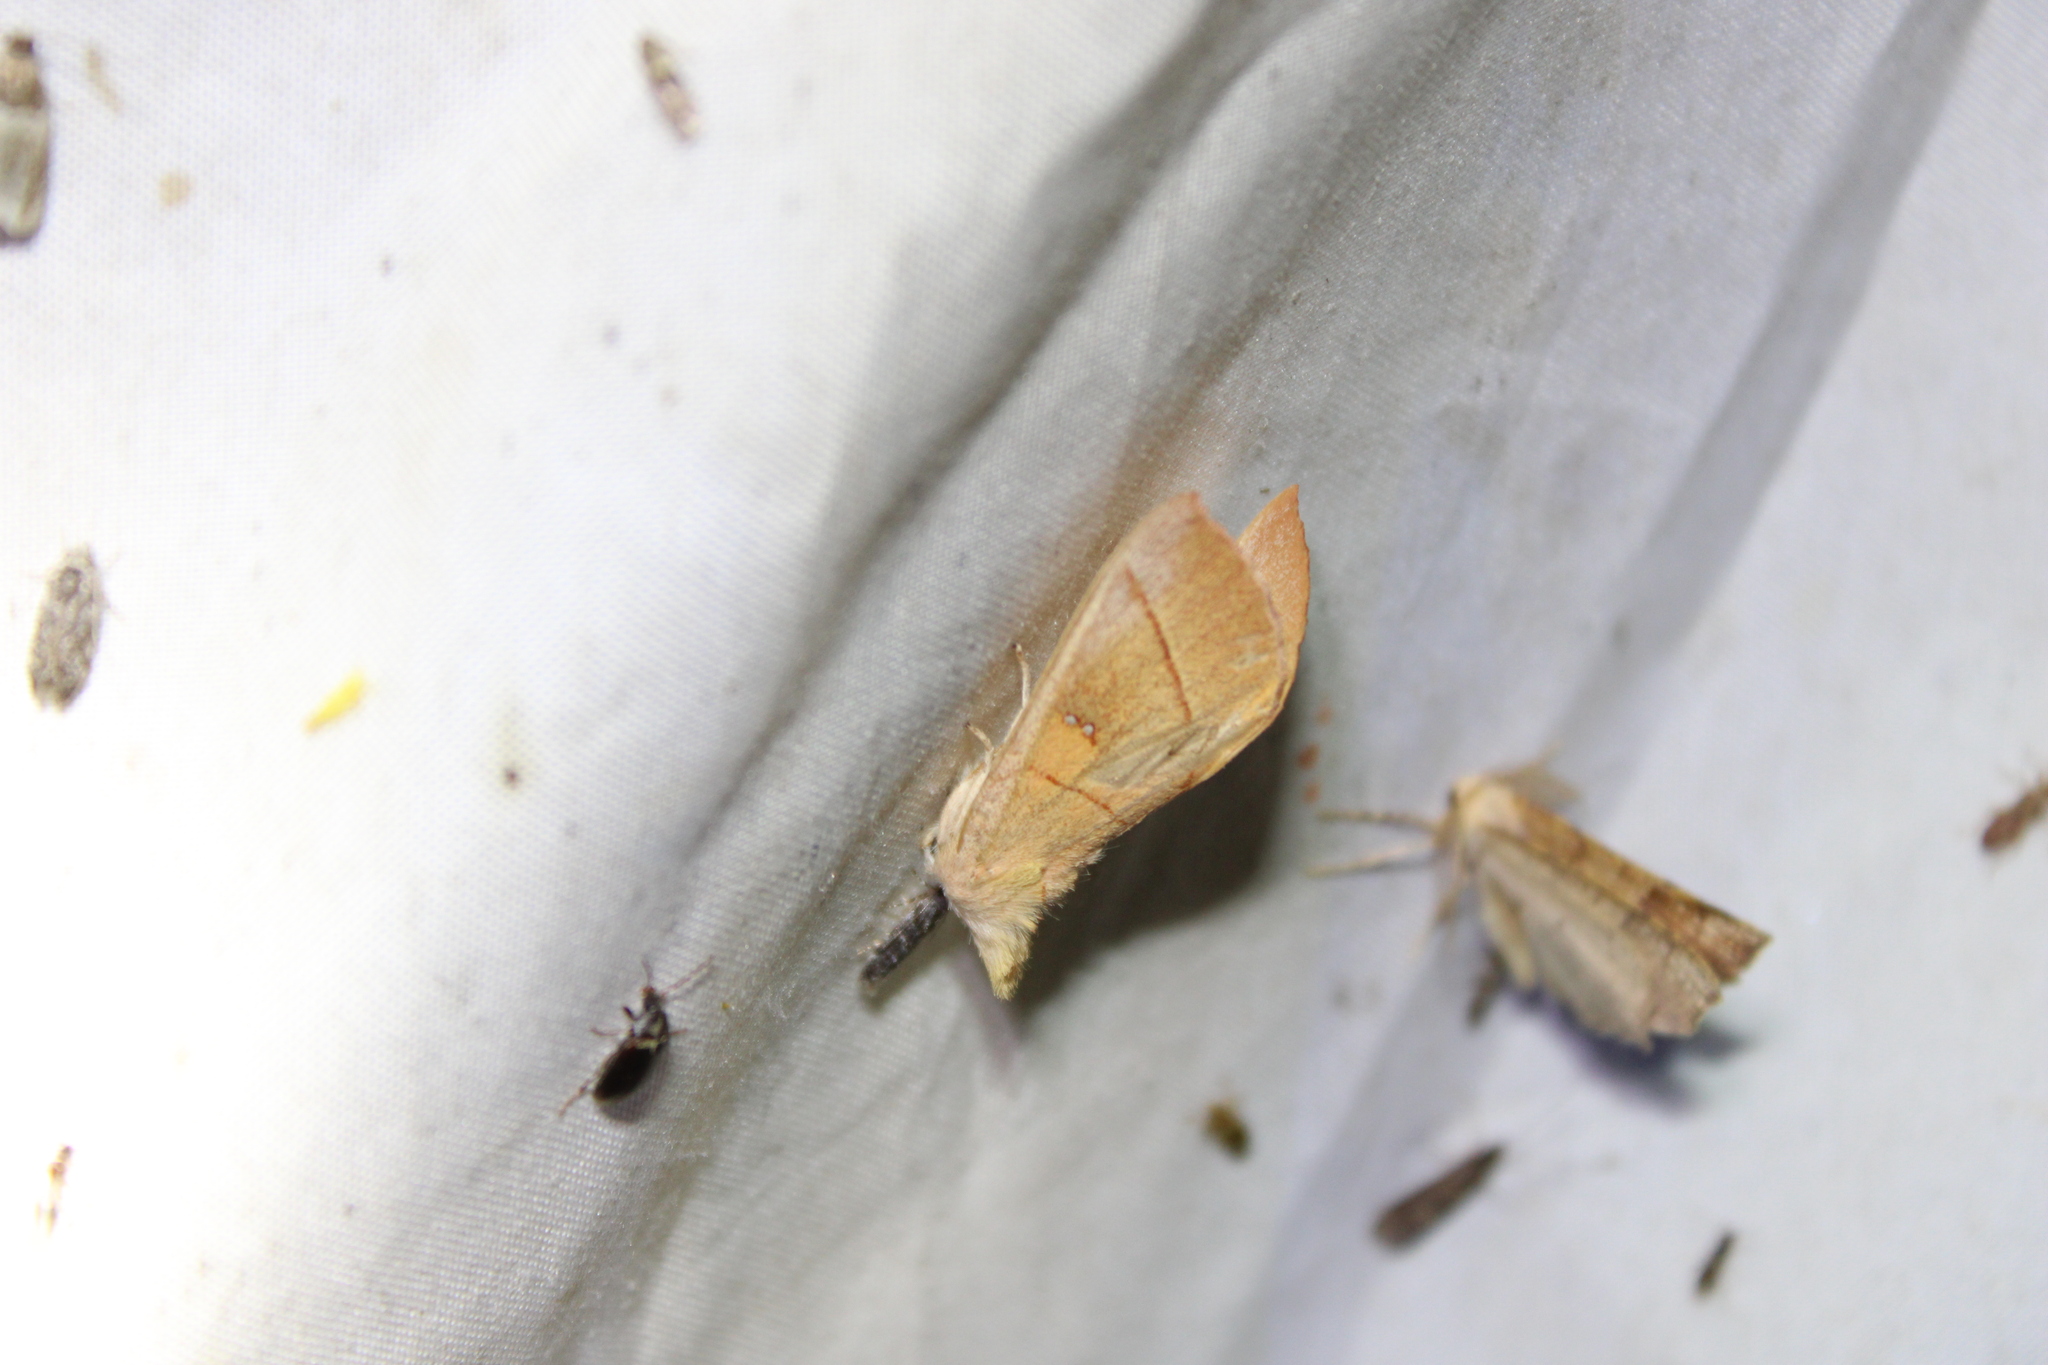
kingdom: Animalia
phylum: Arthropoda
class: Insecta
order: Lepidoptera
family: Notodontidae
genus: Nadata
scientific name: Nadata gibbosa
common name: White-dotted prominent
